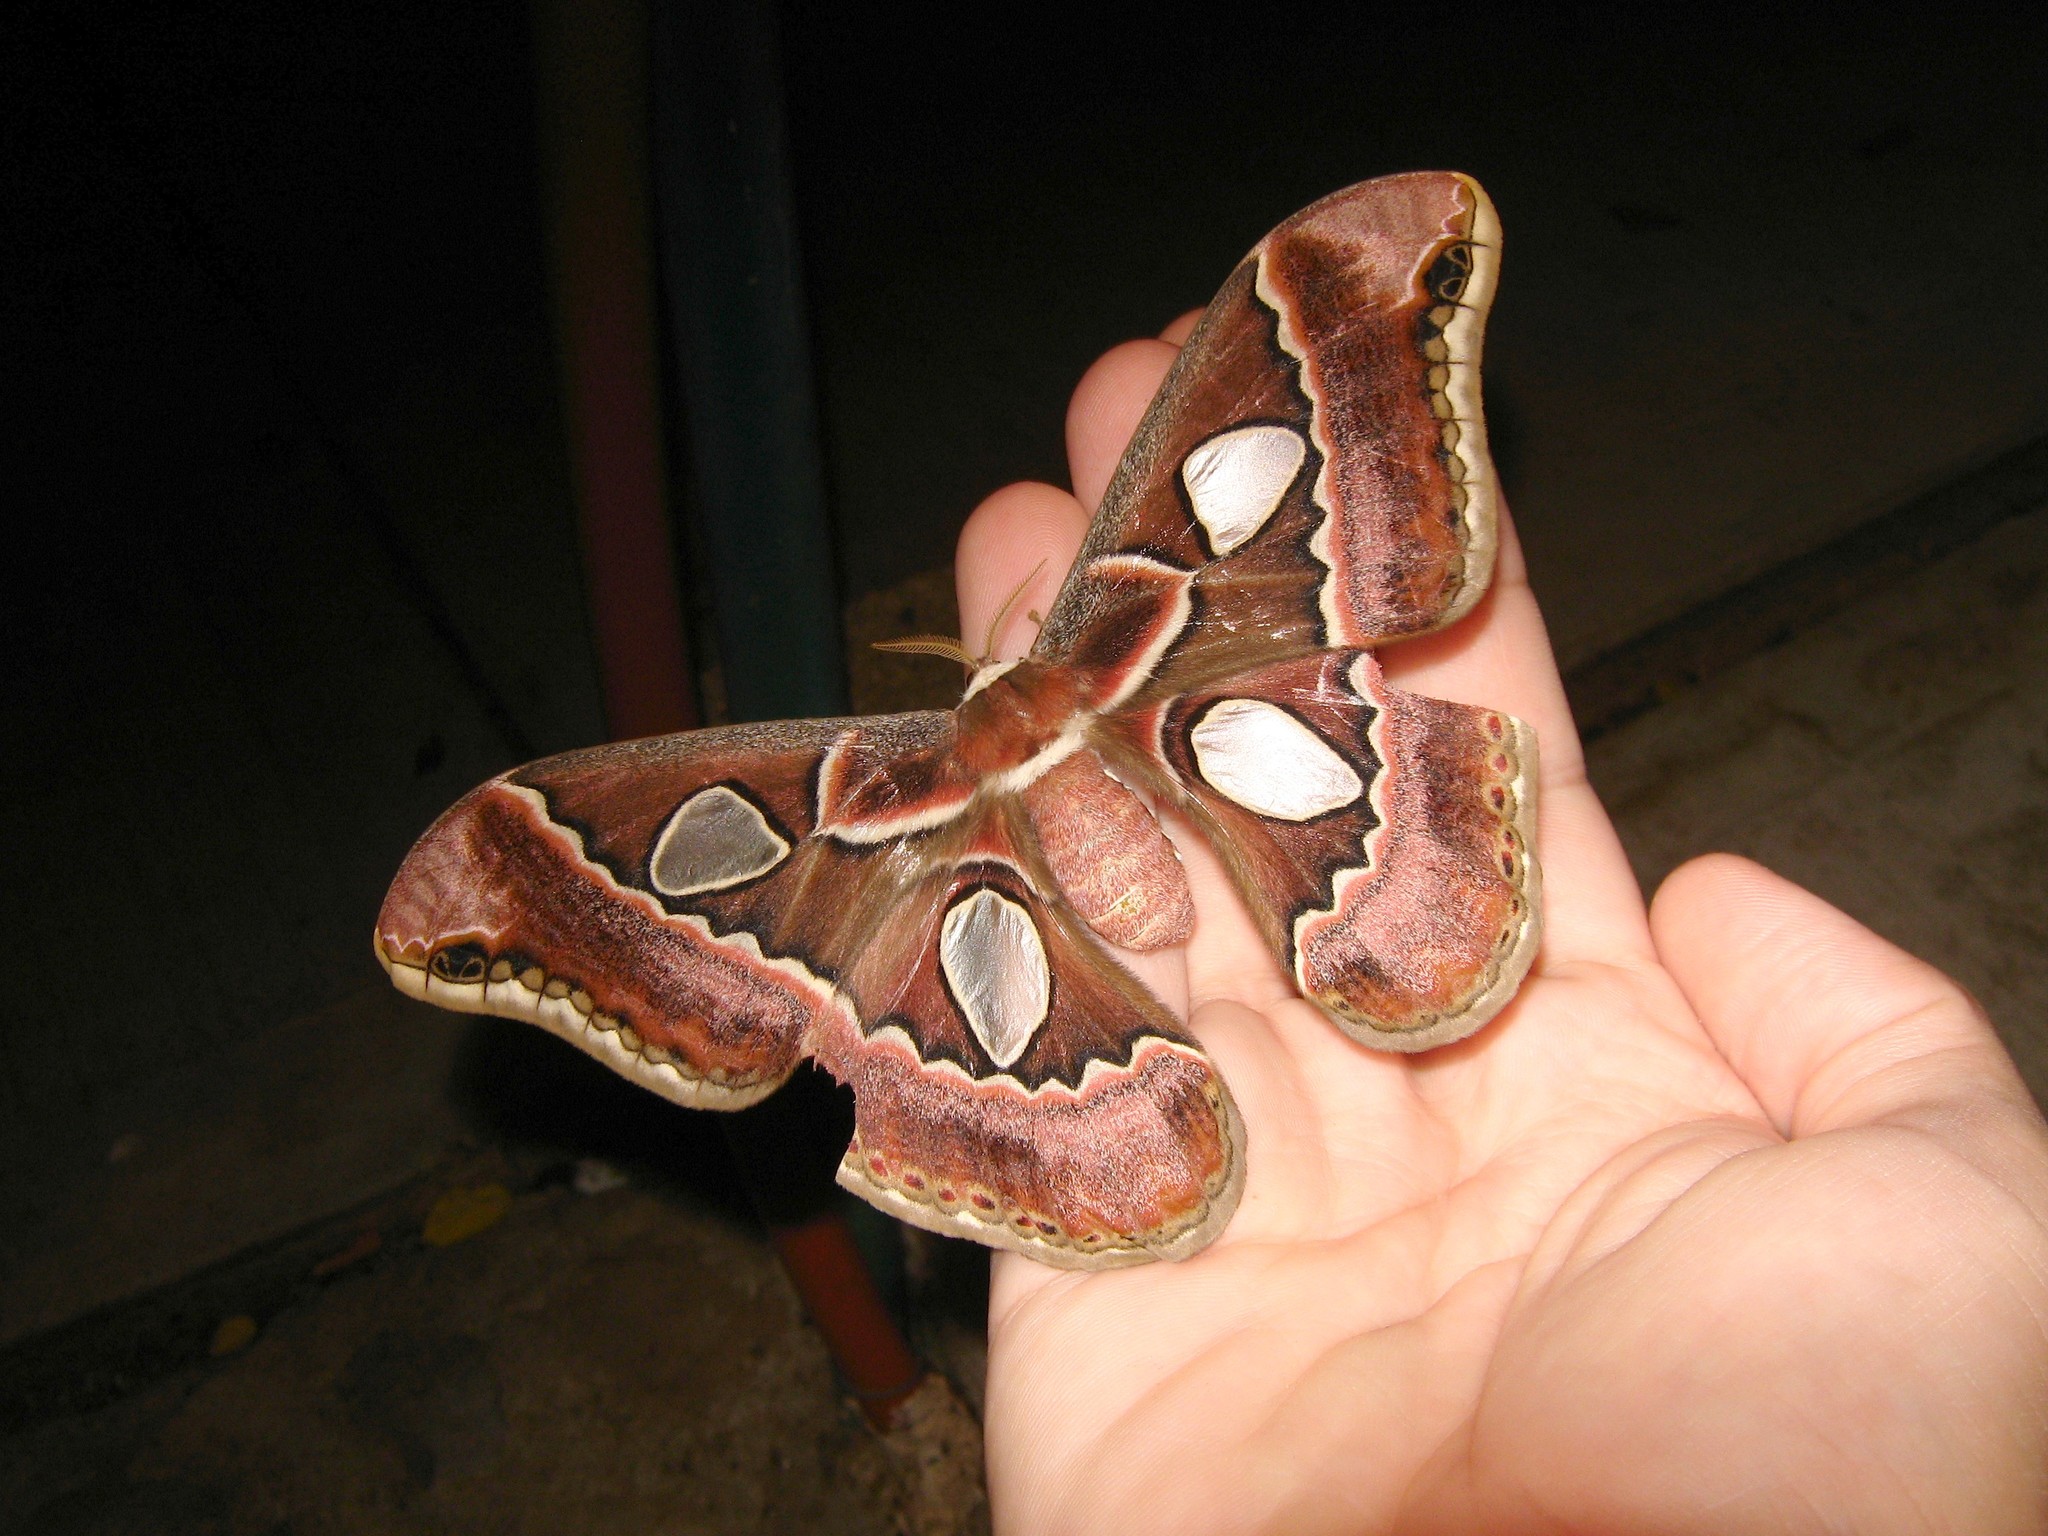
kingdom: Animalia
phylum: Arthropoda
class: Insecta
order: Lepidoptera
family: Saturniidae
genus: Rothschildia
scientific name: Rothschildia cinctus
